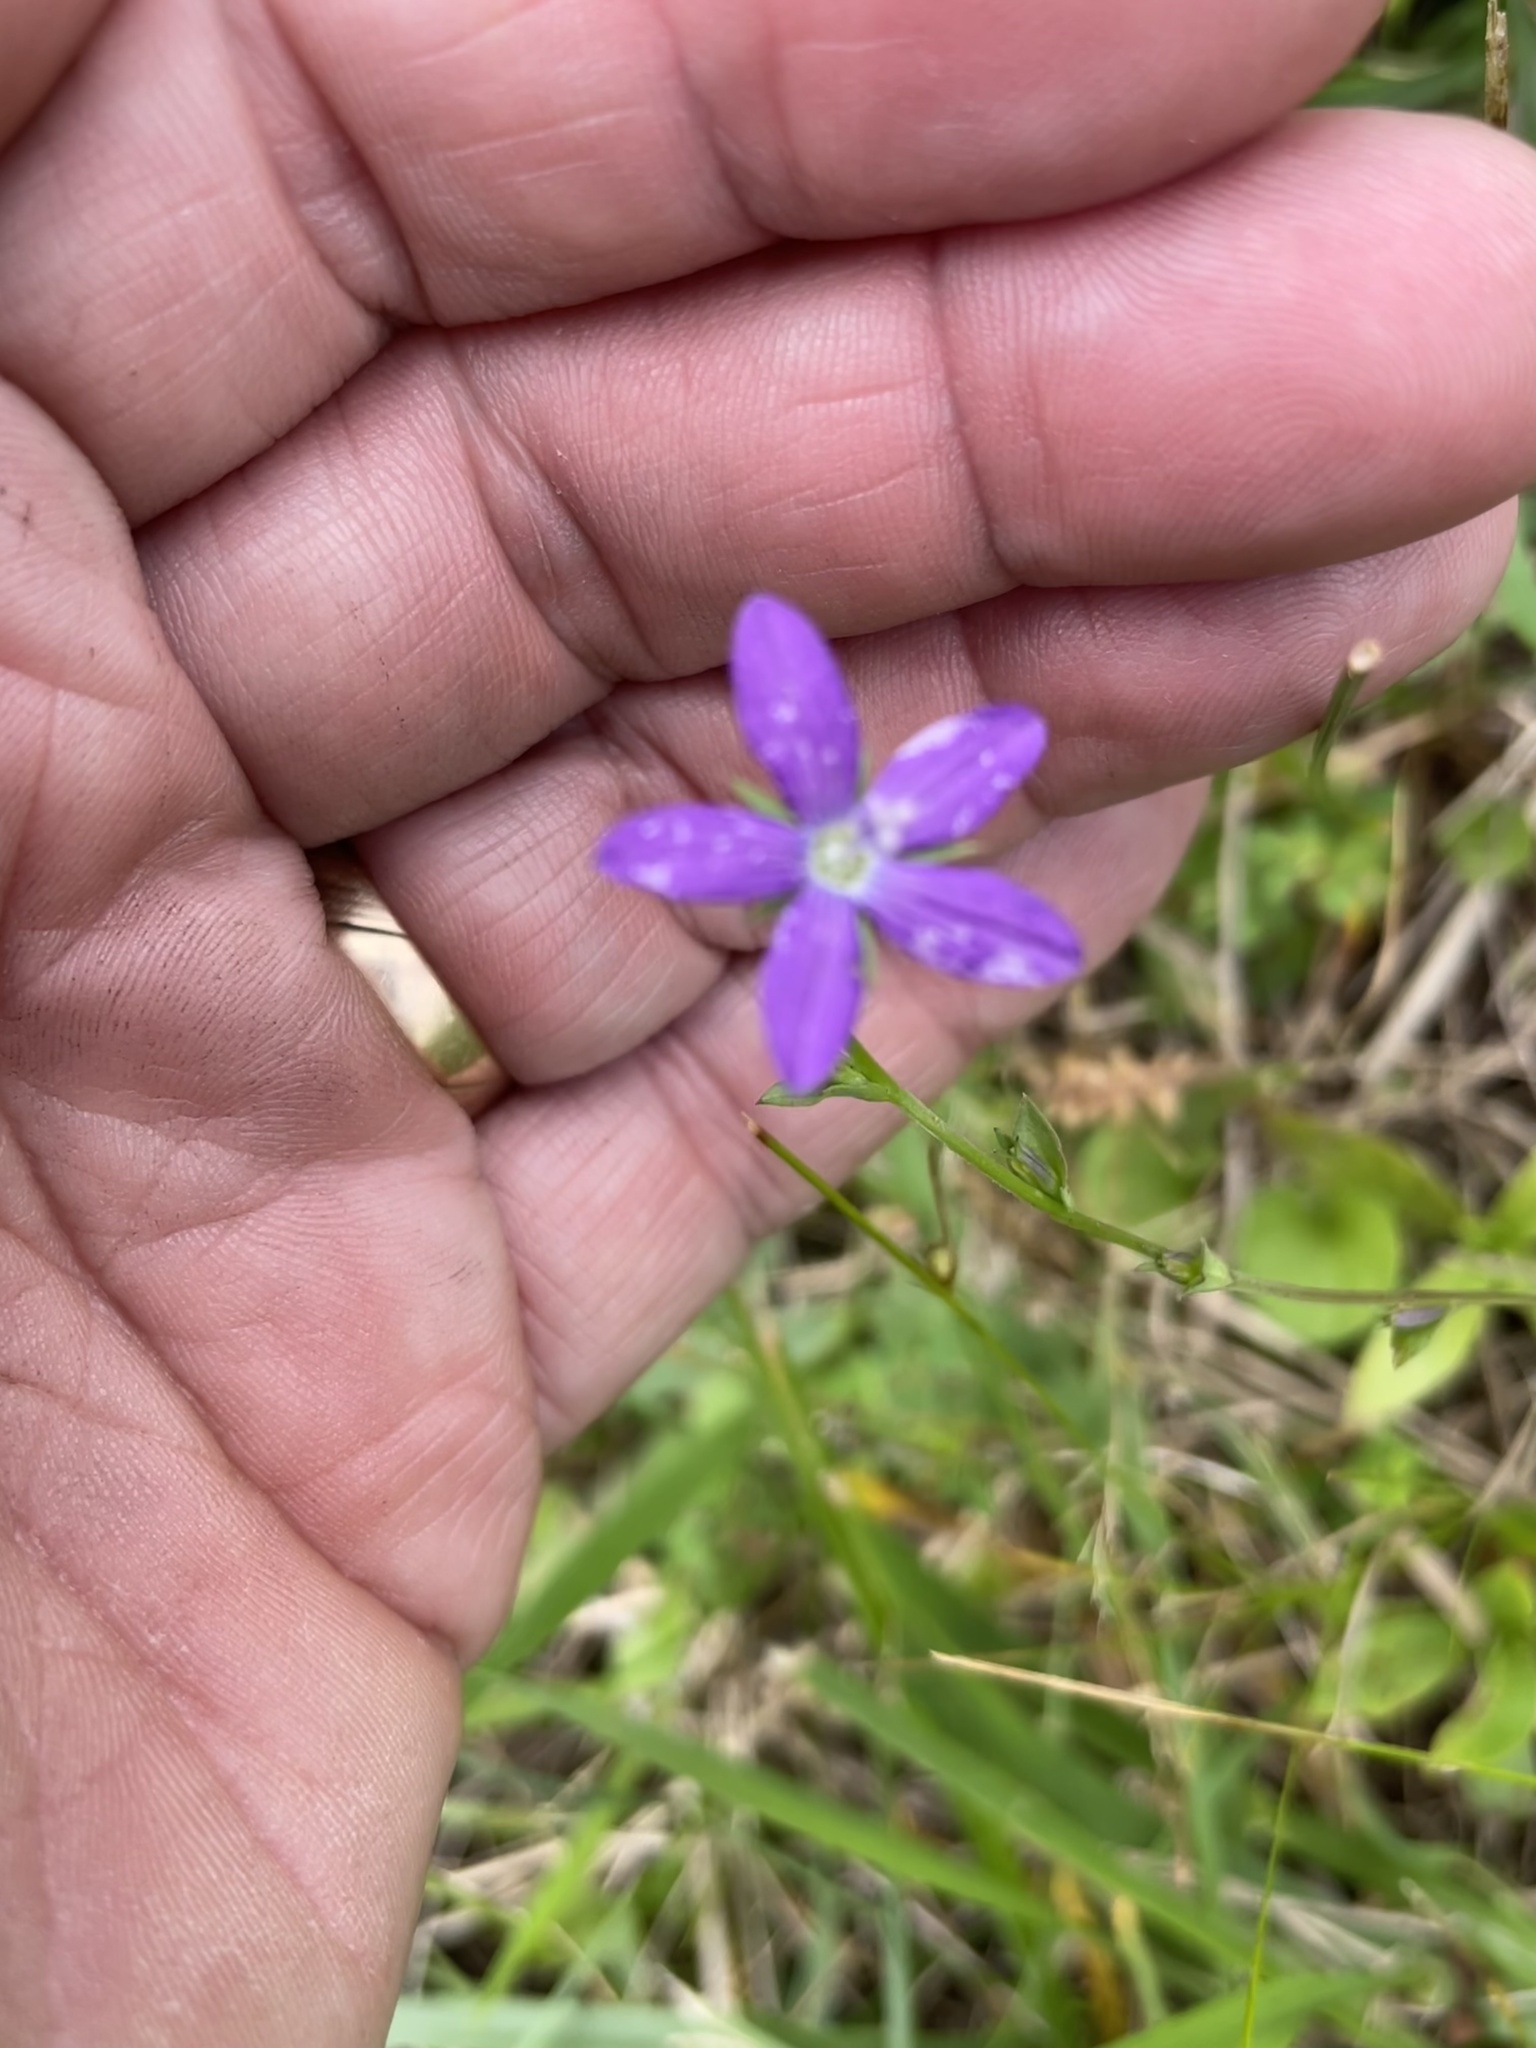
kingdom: Plantae
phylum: Tracheophyta
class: Magnoliopsida
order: Asterales
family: Campanulaceae
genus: Triodanis
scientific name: Triodanis biflora
